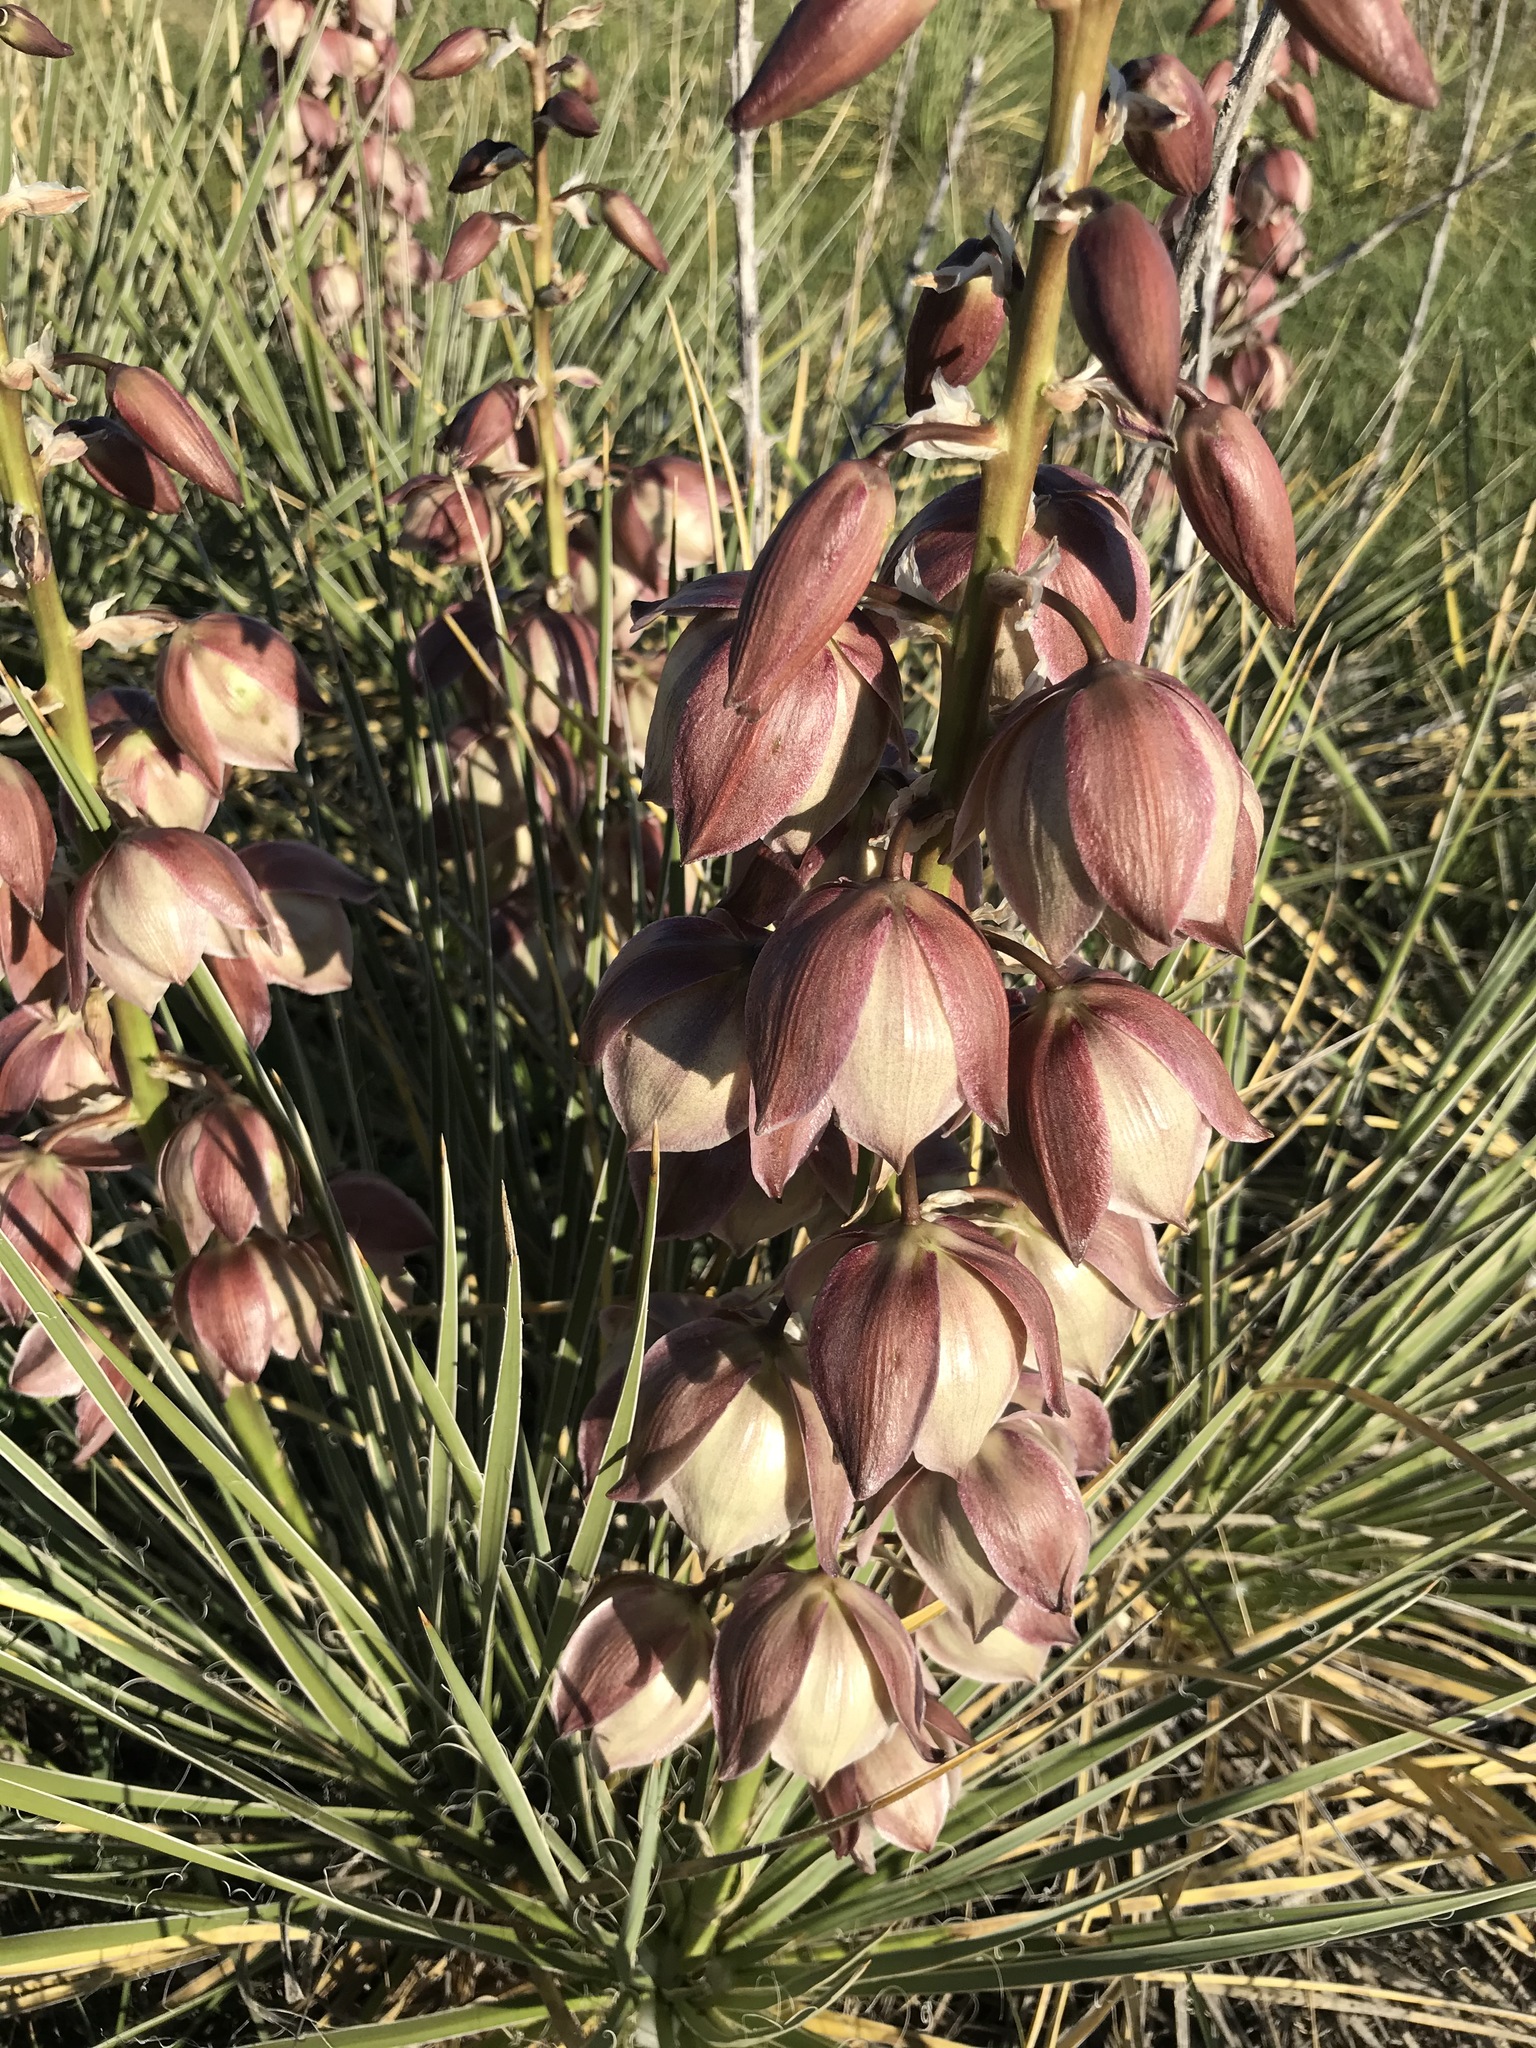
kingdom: Plantae
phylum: Tracheophyta
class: Liliopsida
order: Asparagales
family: Asparagaceae
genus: Yucca
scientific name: Yucca glauca
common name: Great plains yucca
